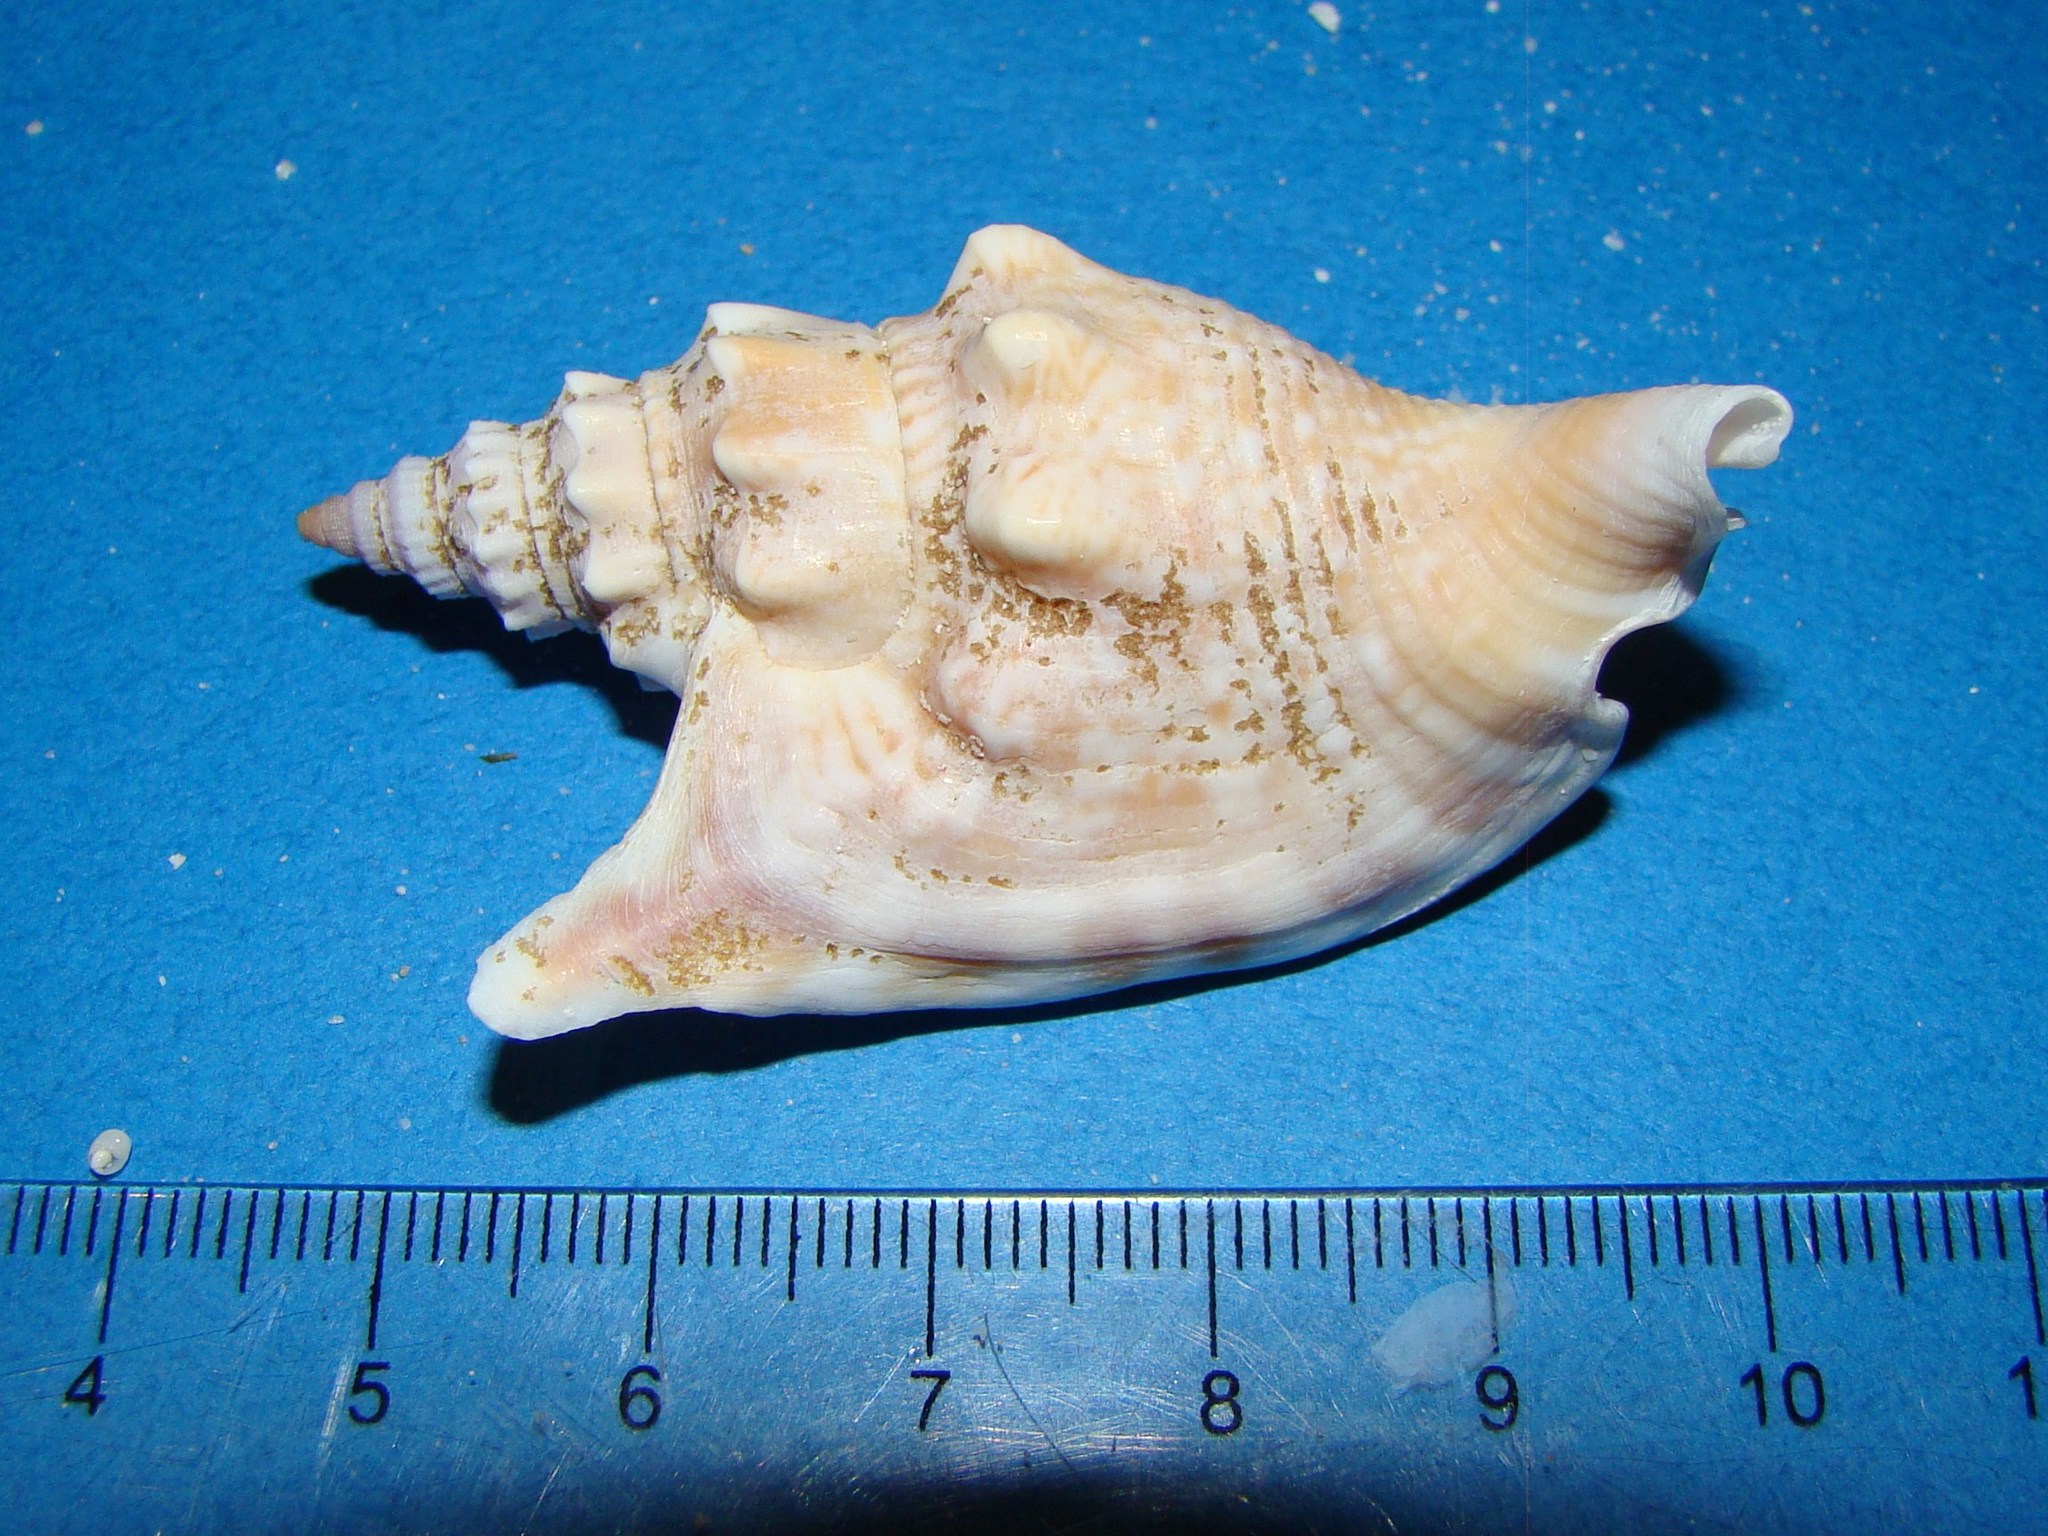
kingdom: Animalia
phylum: Mollusca
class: Gastropoda
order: Littorinimorpha
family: Strombidae
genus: Euprotomus
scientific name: Euprotomus vomer
